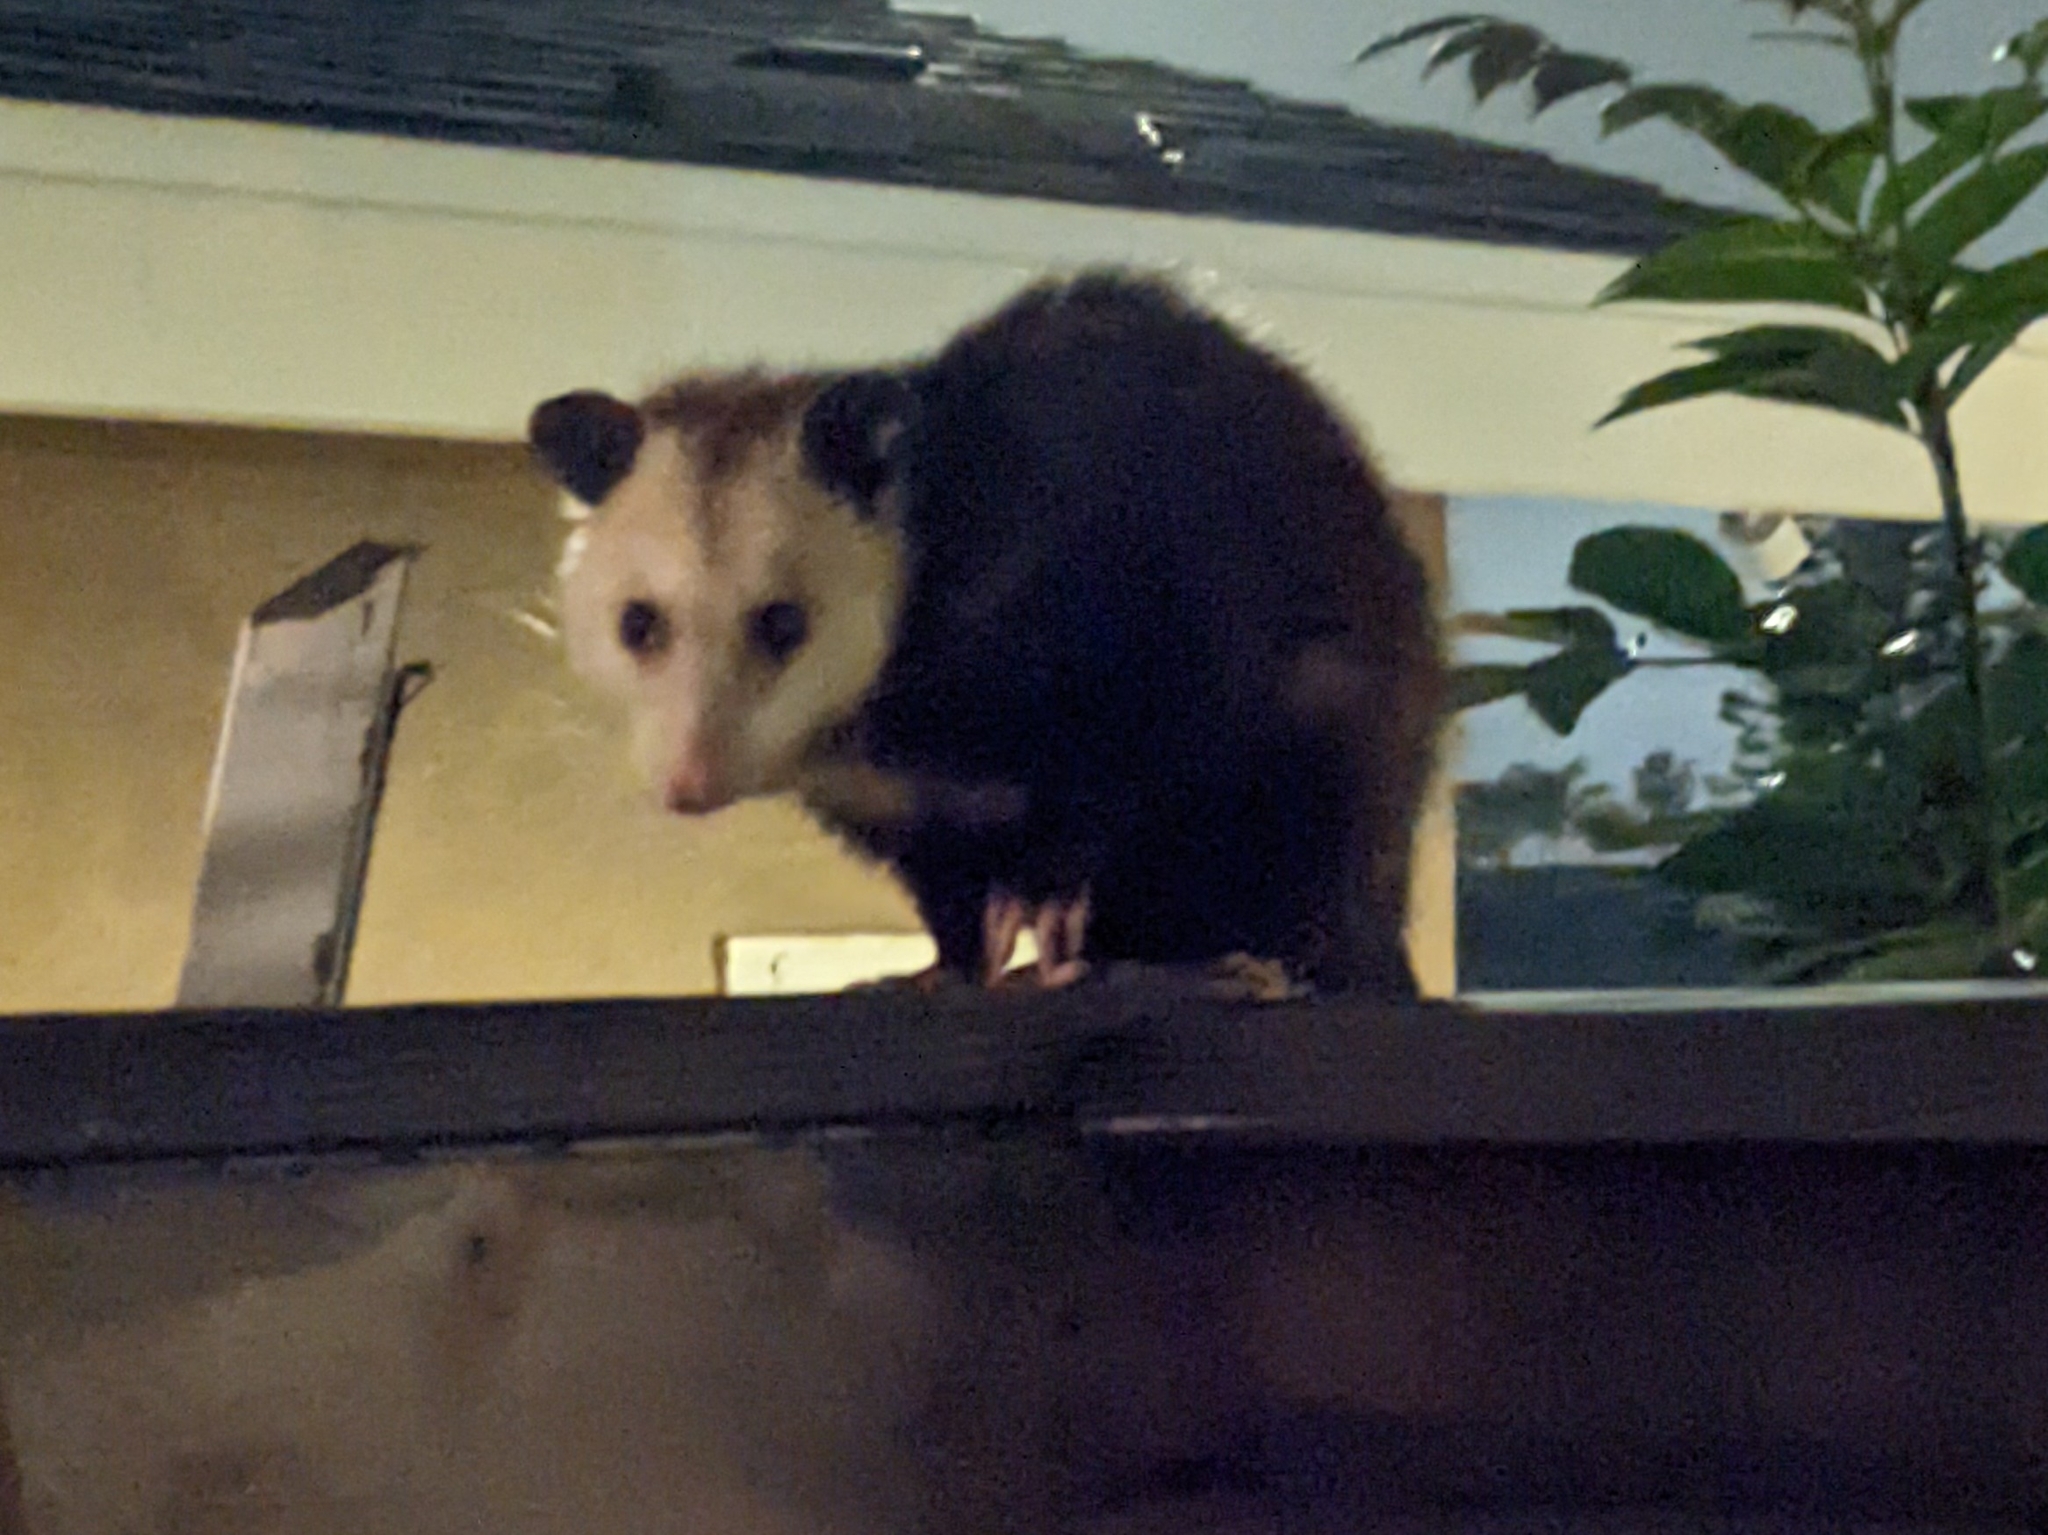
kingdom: Animalia
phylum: Chordata
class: Mammalia
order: Didelphimorphia
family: Didelphidae
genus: Didelphis
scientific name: Didelphis virginiana
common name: Virginia opossum
